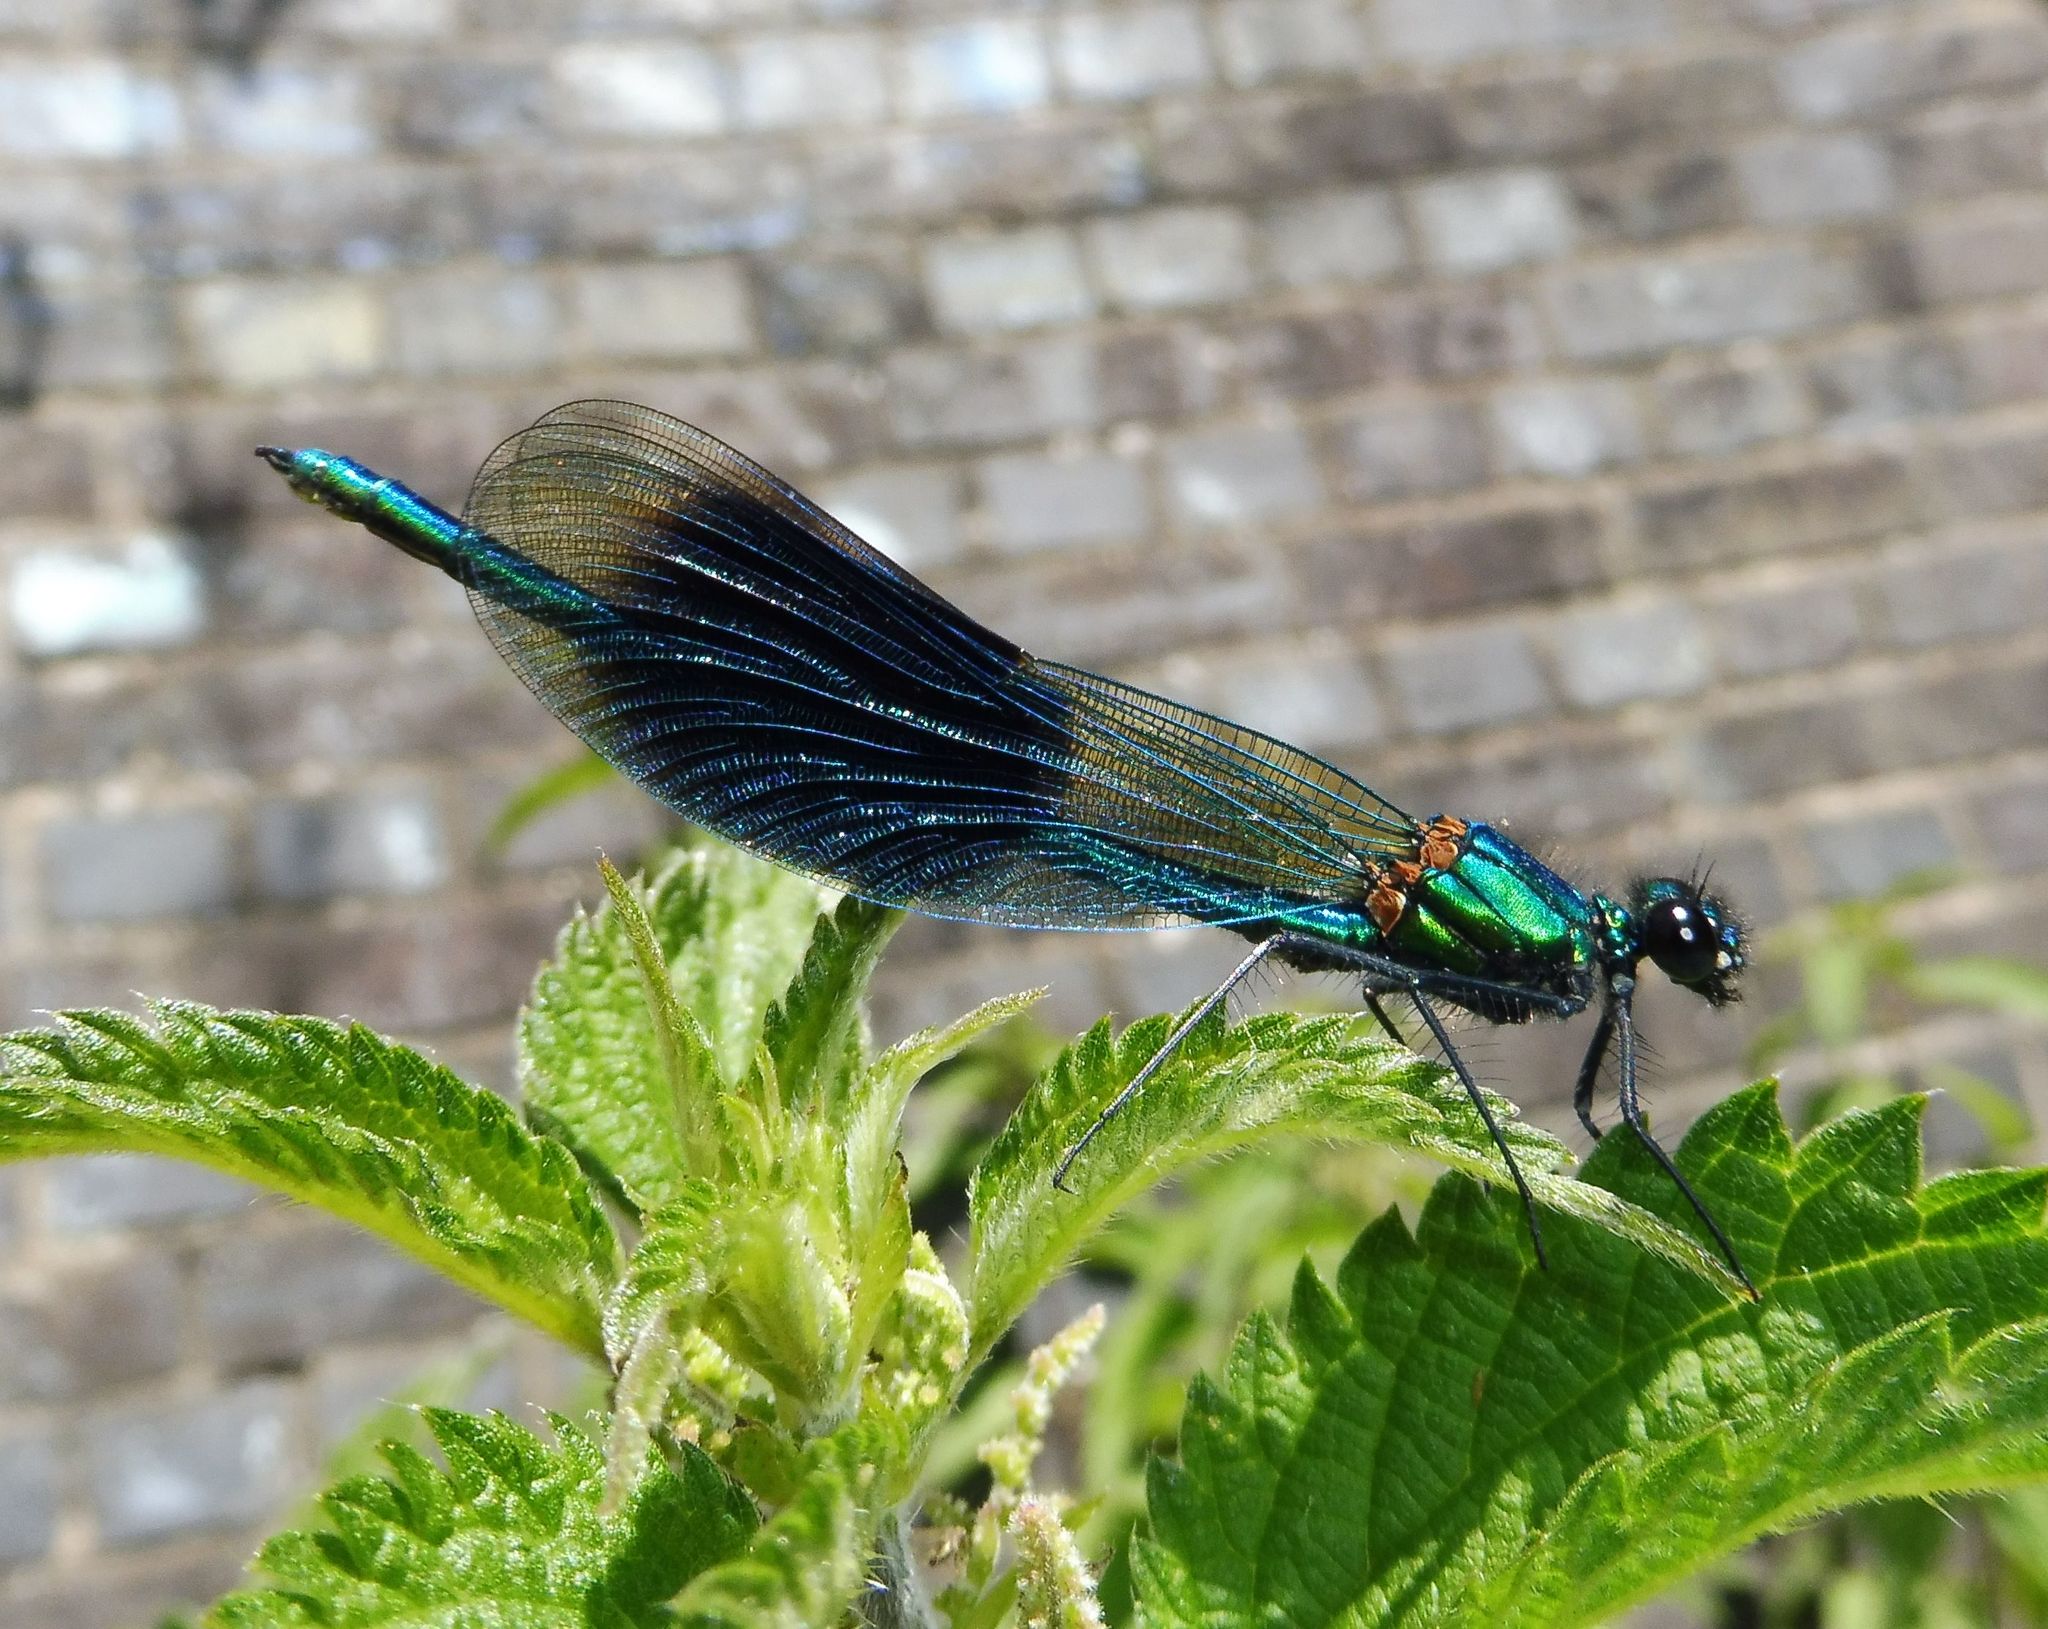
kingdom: Animalia
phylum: Arthropoda
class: Insecta
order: Odonata
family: Calopterygidae
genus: Calopteryx
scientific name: Calopteryx splendens
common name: Banded demoiselle
